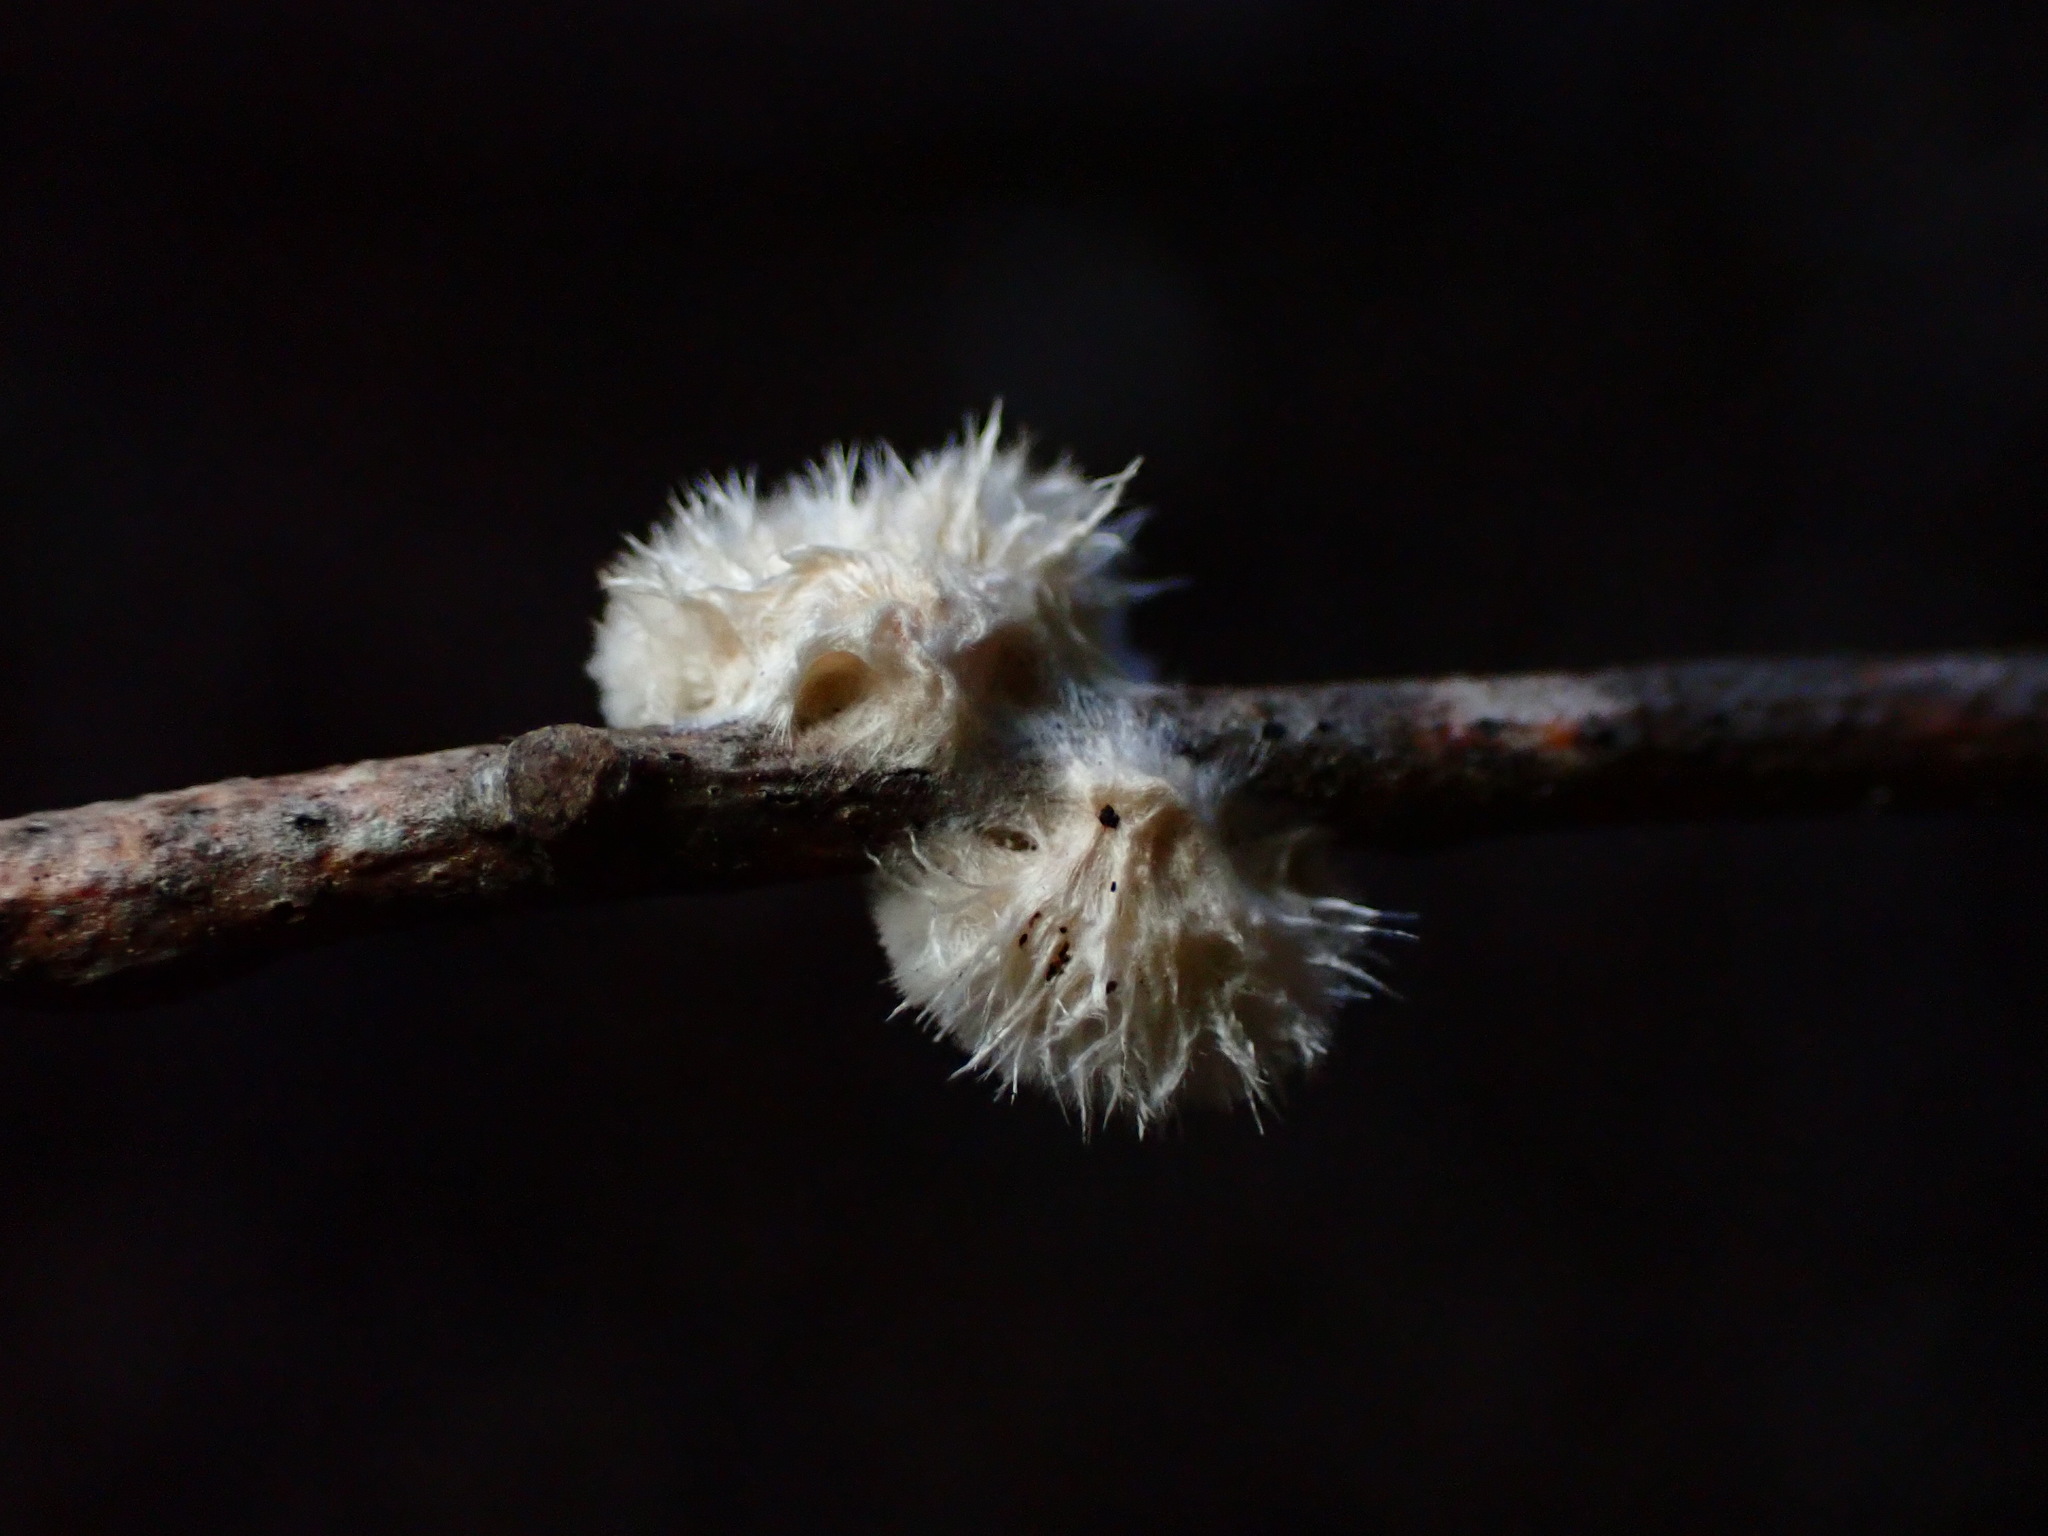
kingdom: Fungi
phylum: Basidiomycota
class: Agaricomycetes
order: Russulales
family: Stereaceae
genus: Stereum
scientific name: Stereum ochraceoflavum
